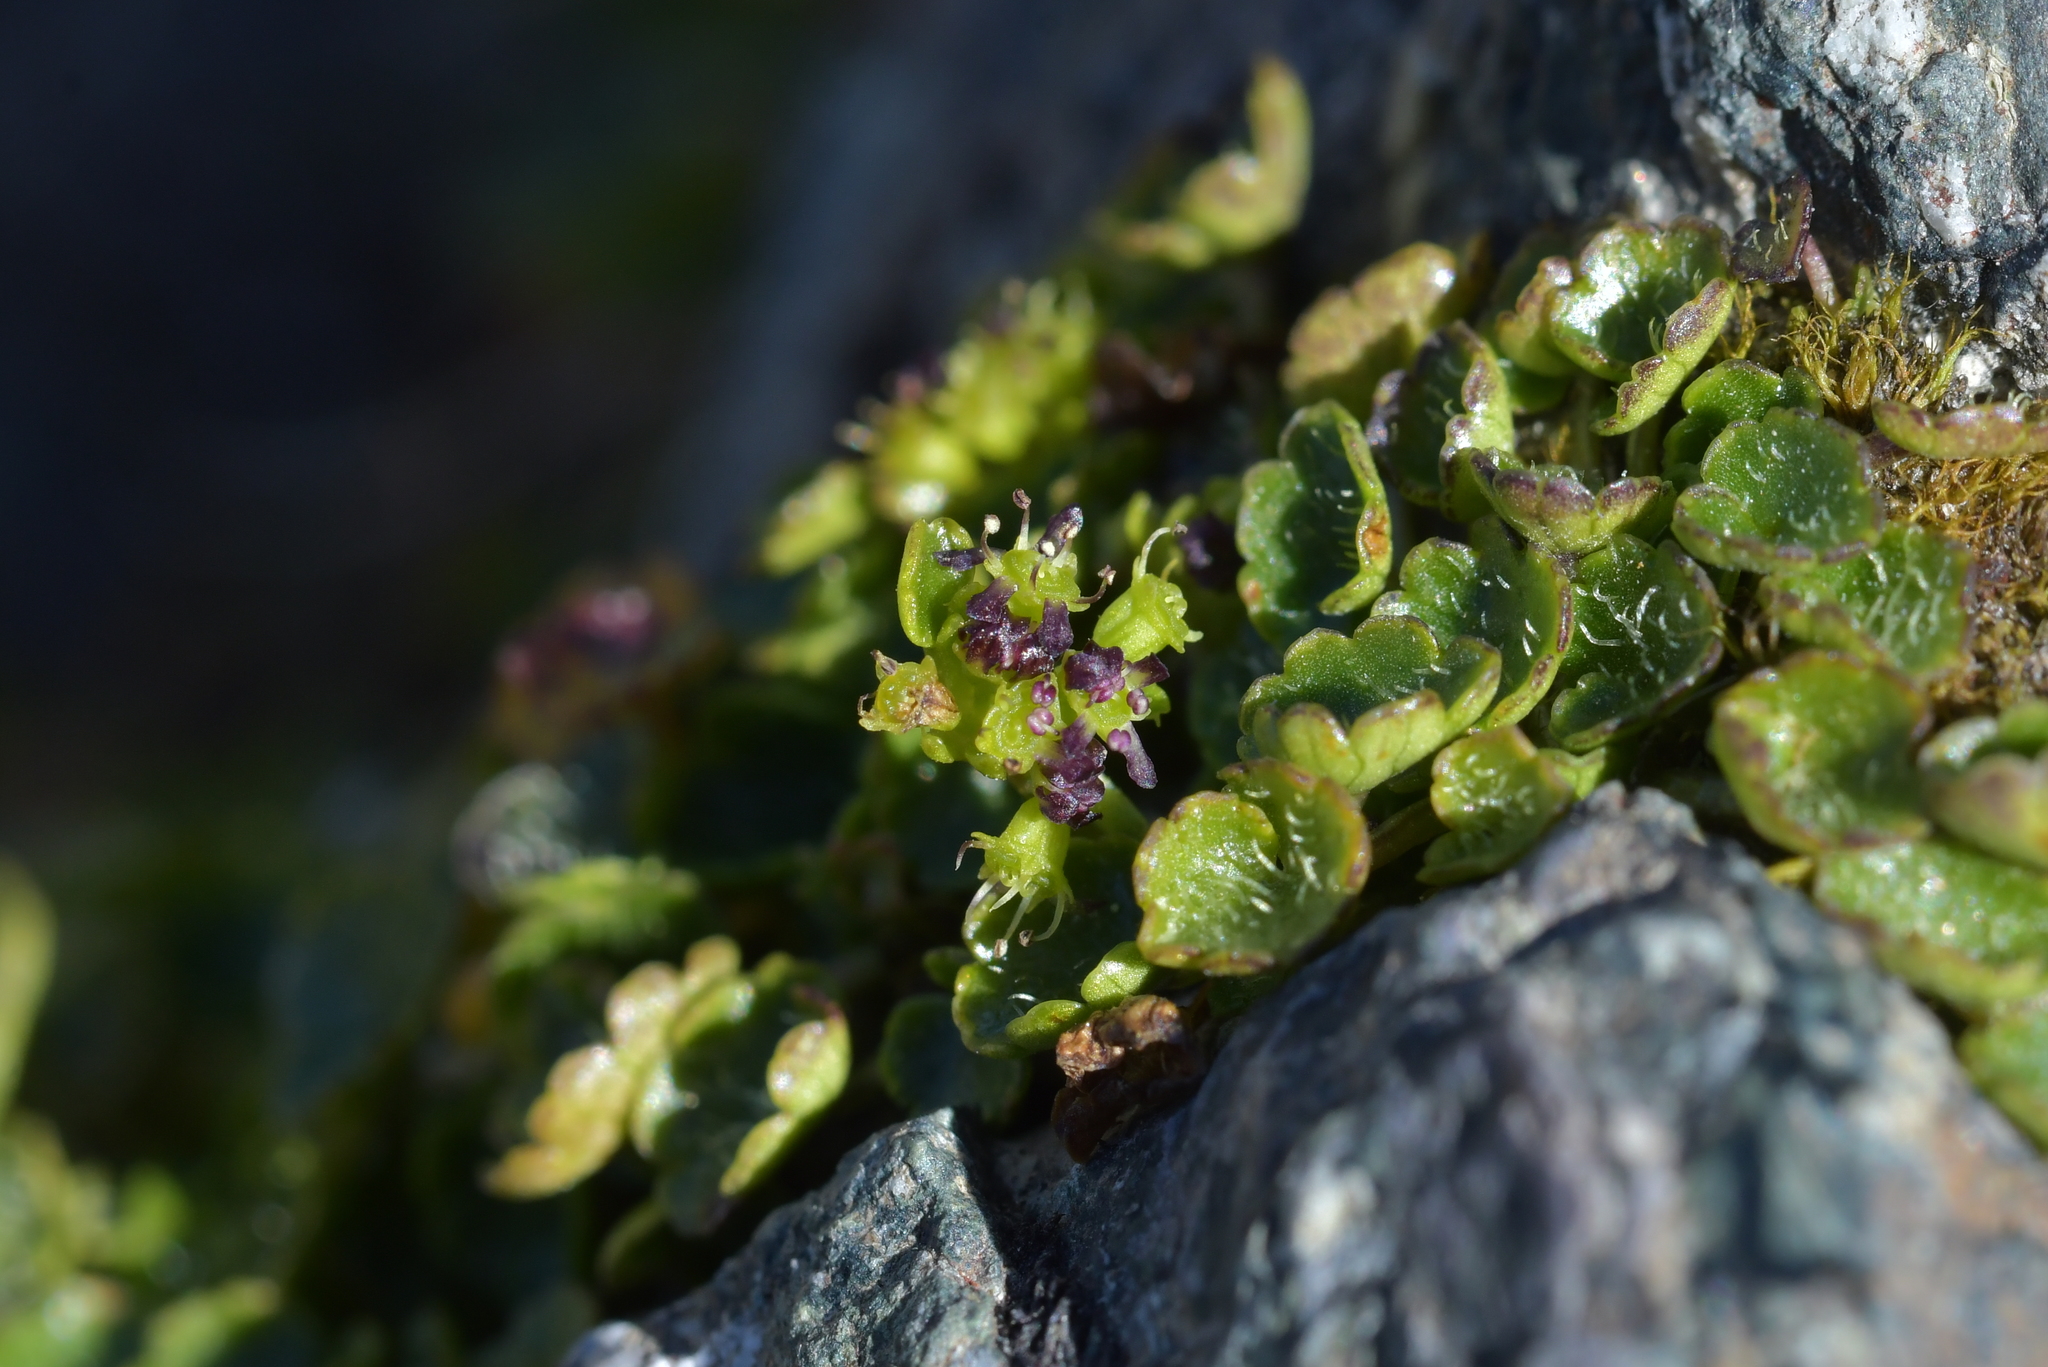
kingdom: Plantae
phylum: Tracheophyta
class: Magnoliopsida
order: Apiales
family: Apiaceae
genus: Azorella
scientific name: Azorella haastii
